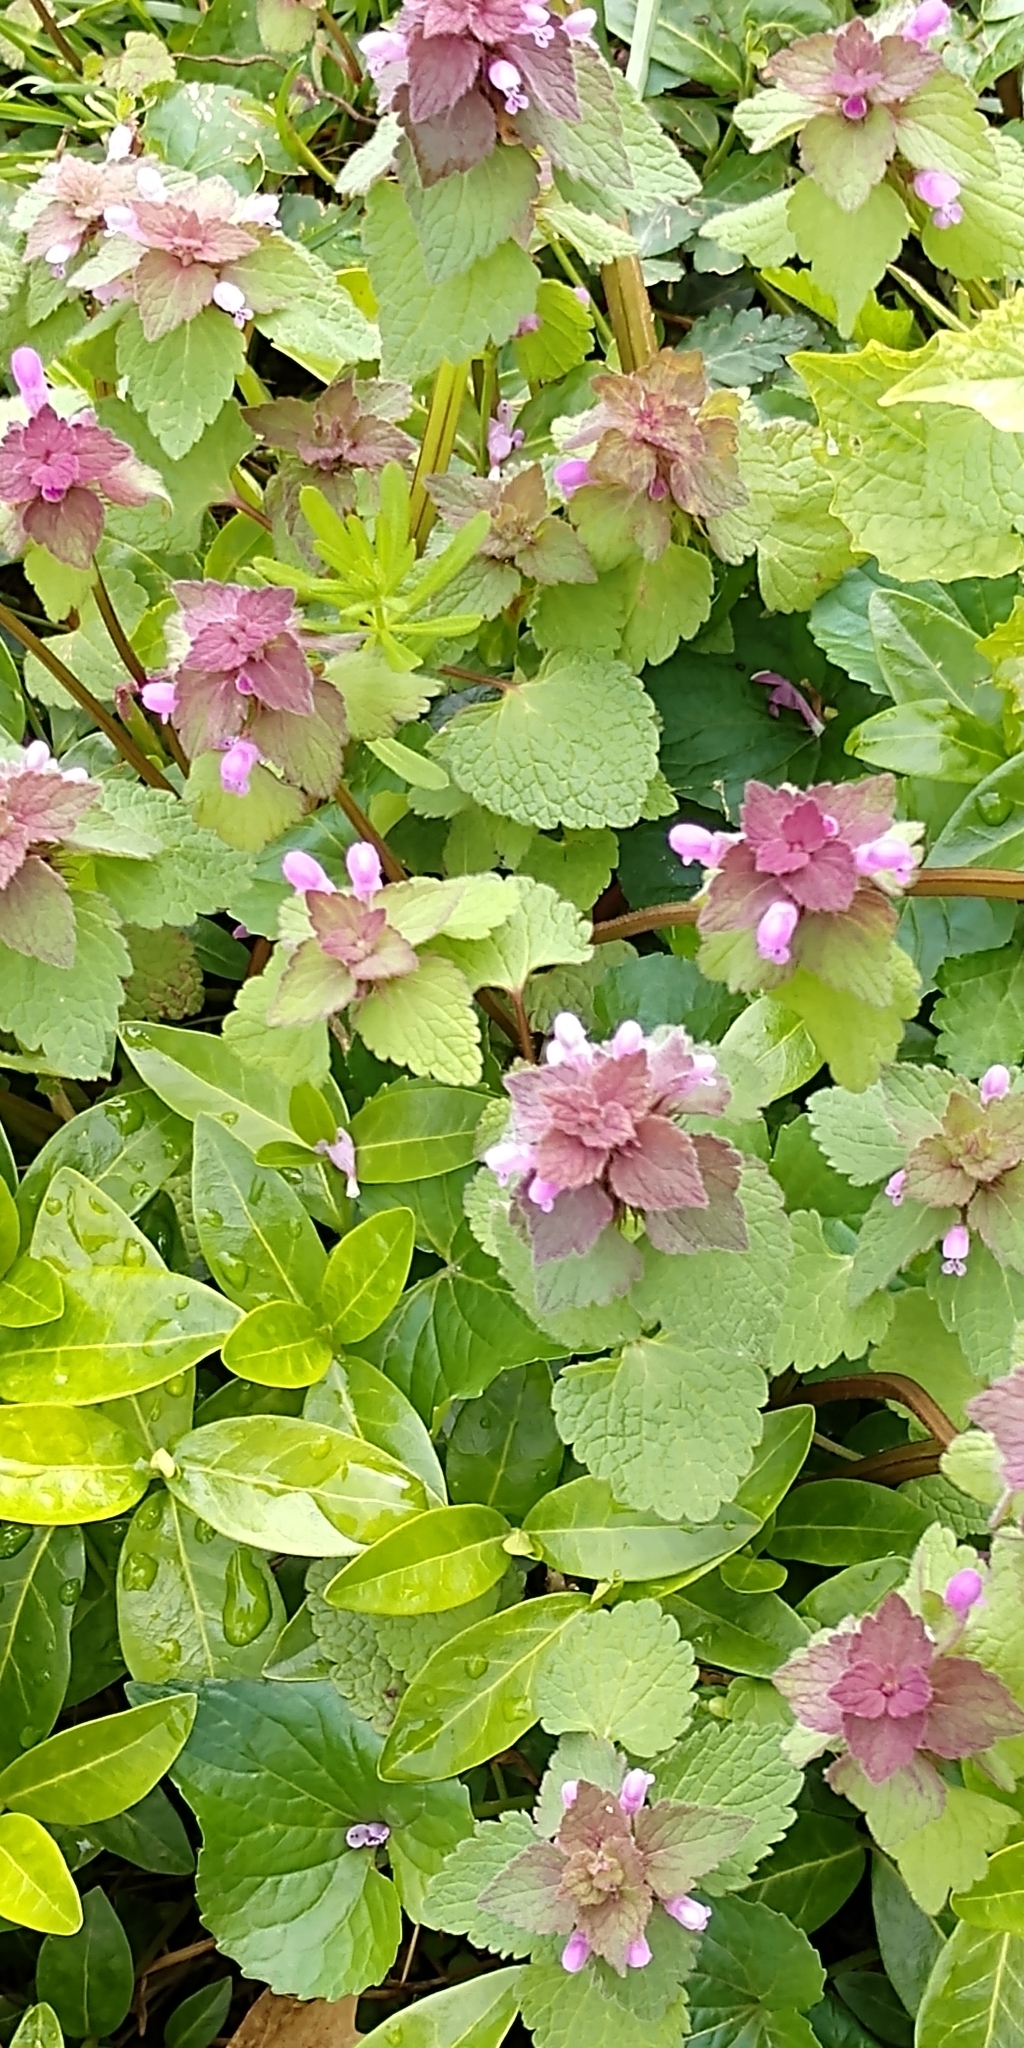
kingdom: Plantae
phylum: Tracheophyta
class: Magnoliopsida
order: Lamiales
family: Lamiaceae
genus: Lamium
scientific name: Lamium purpureum
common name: Red dead-nettle
